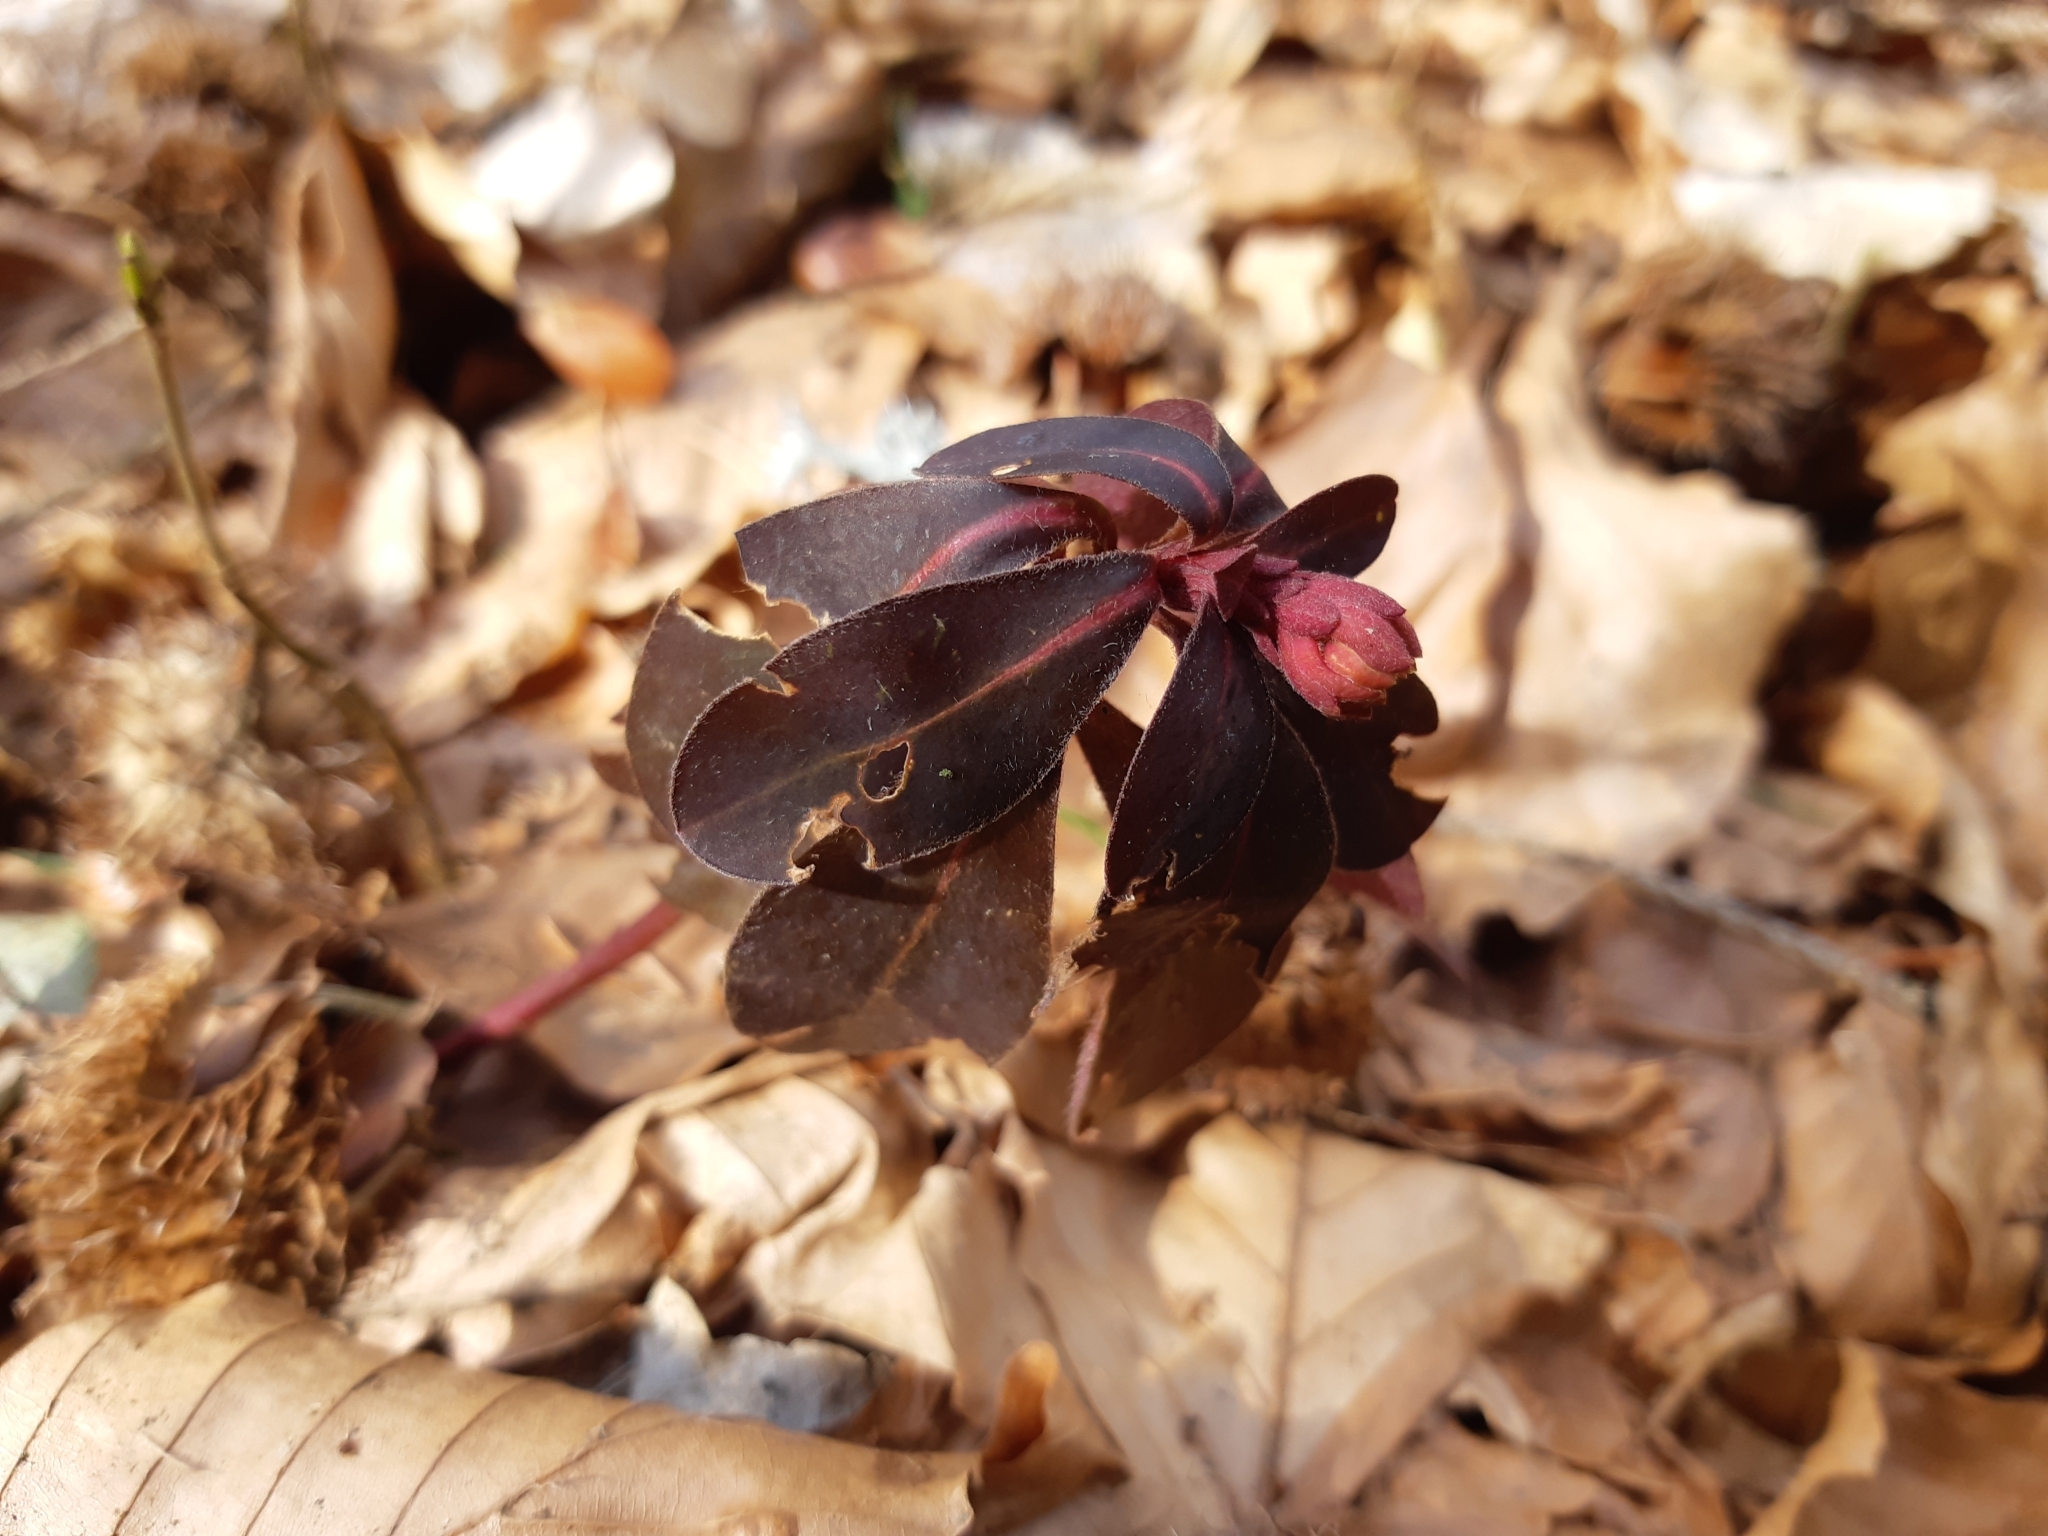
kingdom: Plantae
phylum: Tracheophyta
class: Magnoliopsida
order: Malpighiales
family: Euphorbiaceae
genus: Euphorbia
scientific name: Euphorbia amygdaloides
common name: Wood spurge
